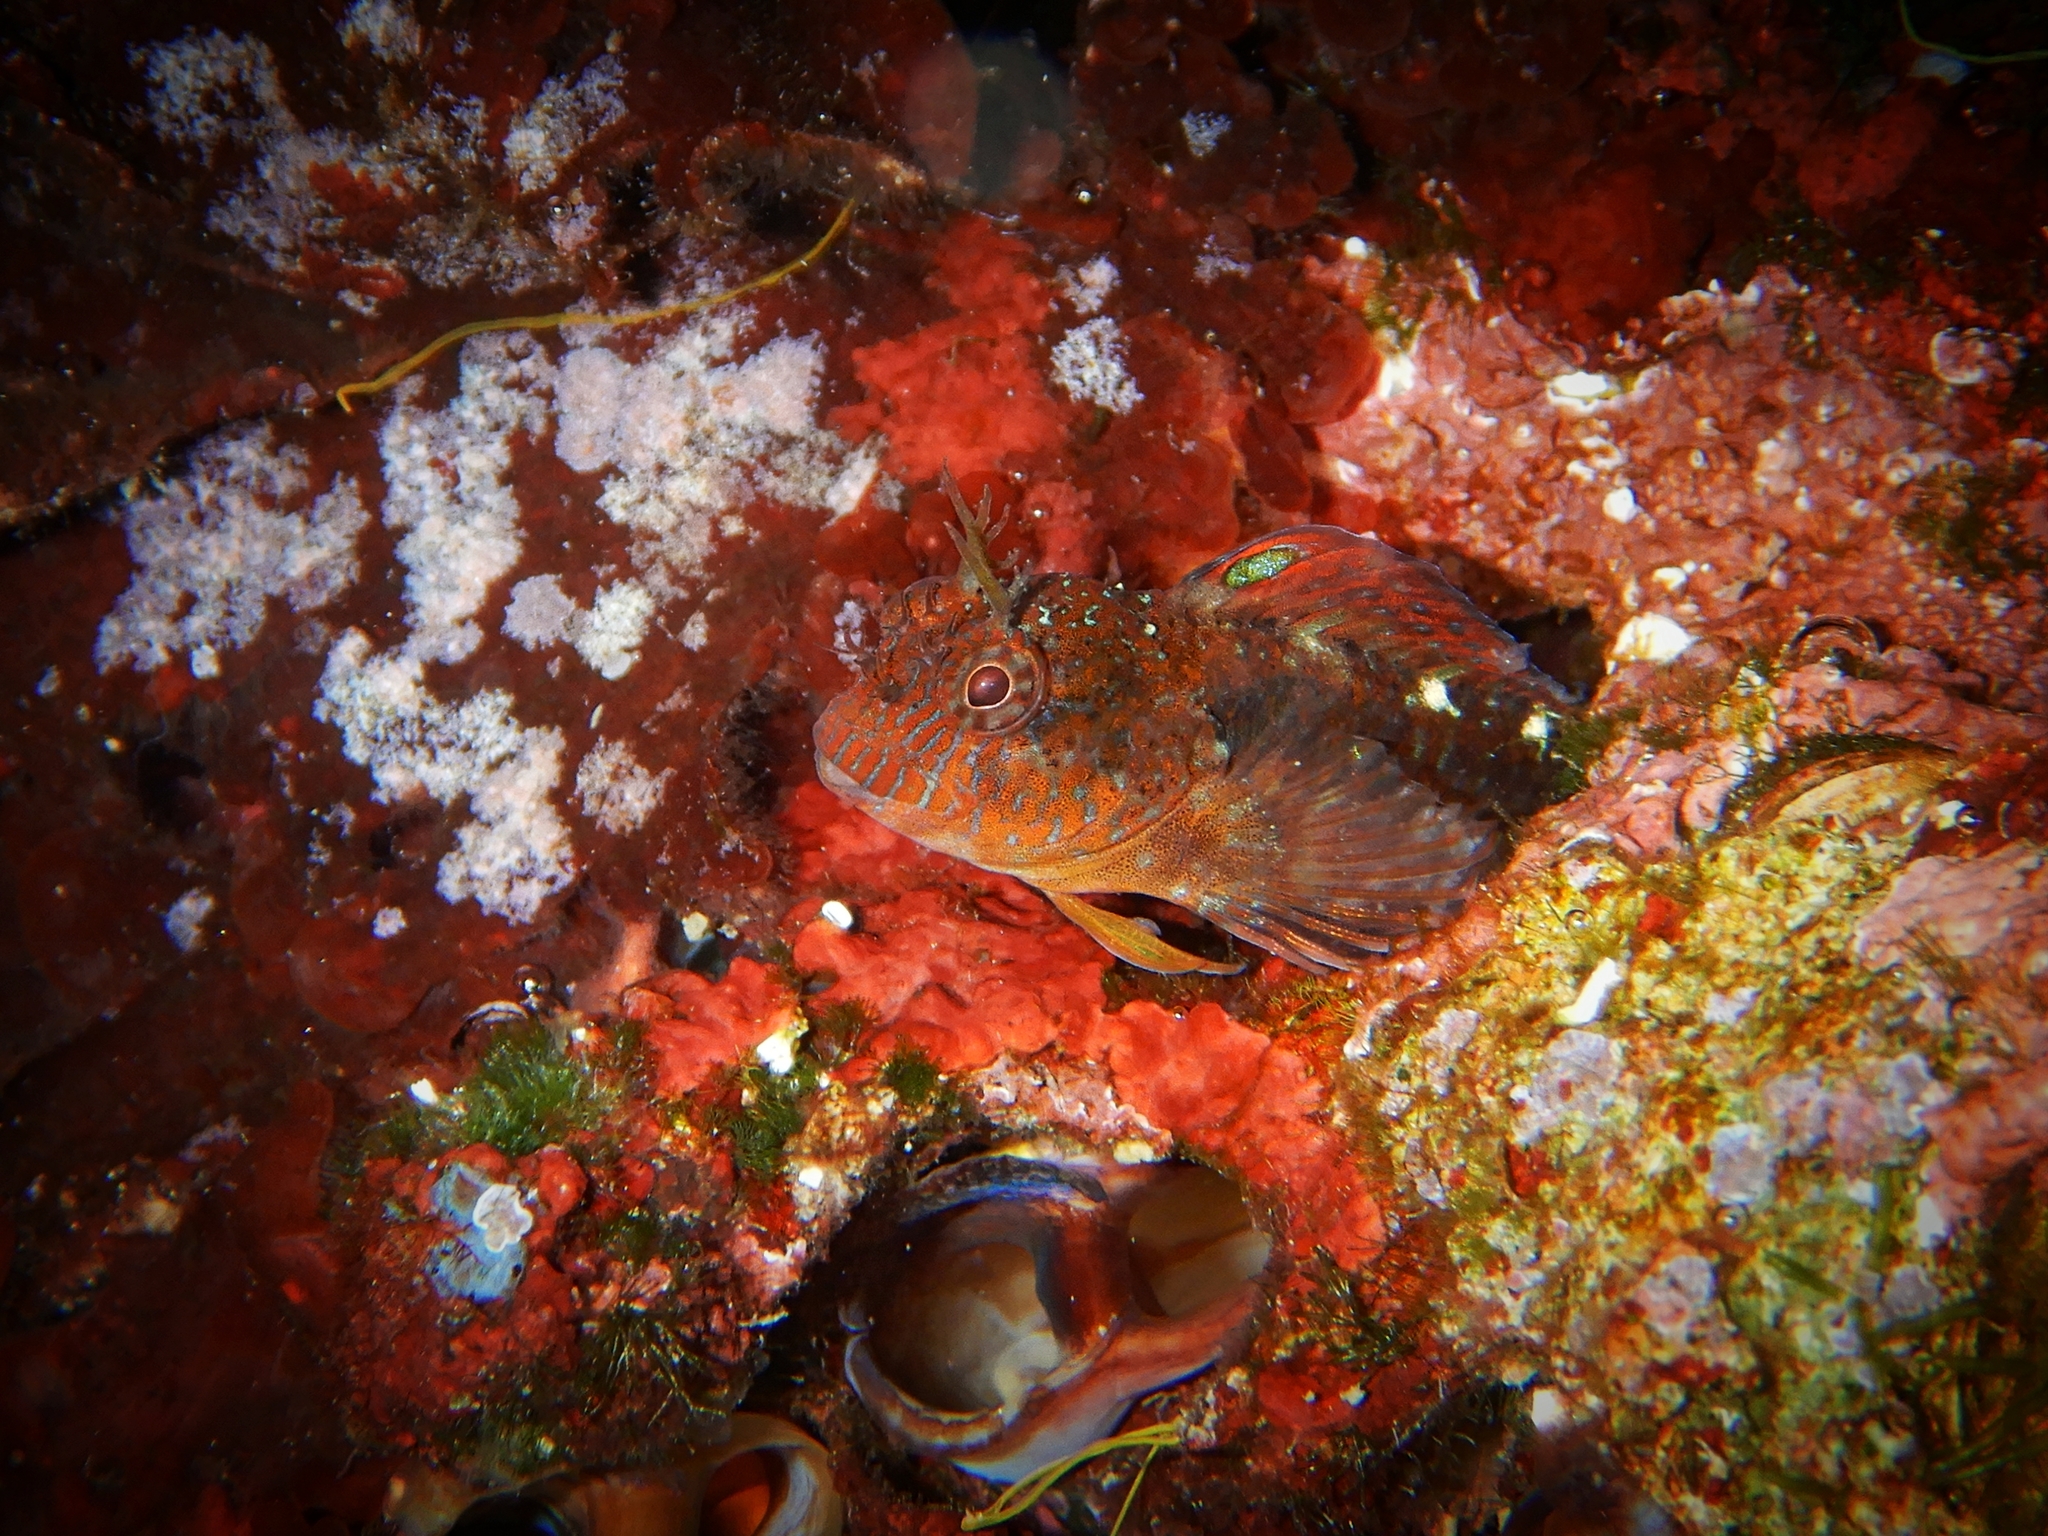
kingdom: Animalia
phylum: Chordata
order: Perciformes
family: Blenniidae
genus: Parablennius
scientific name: Parablennius zvonimiri
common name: Red blenny
